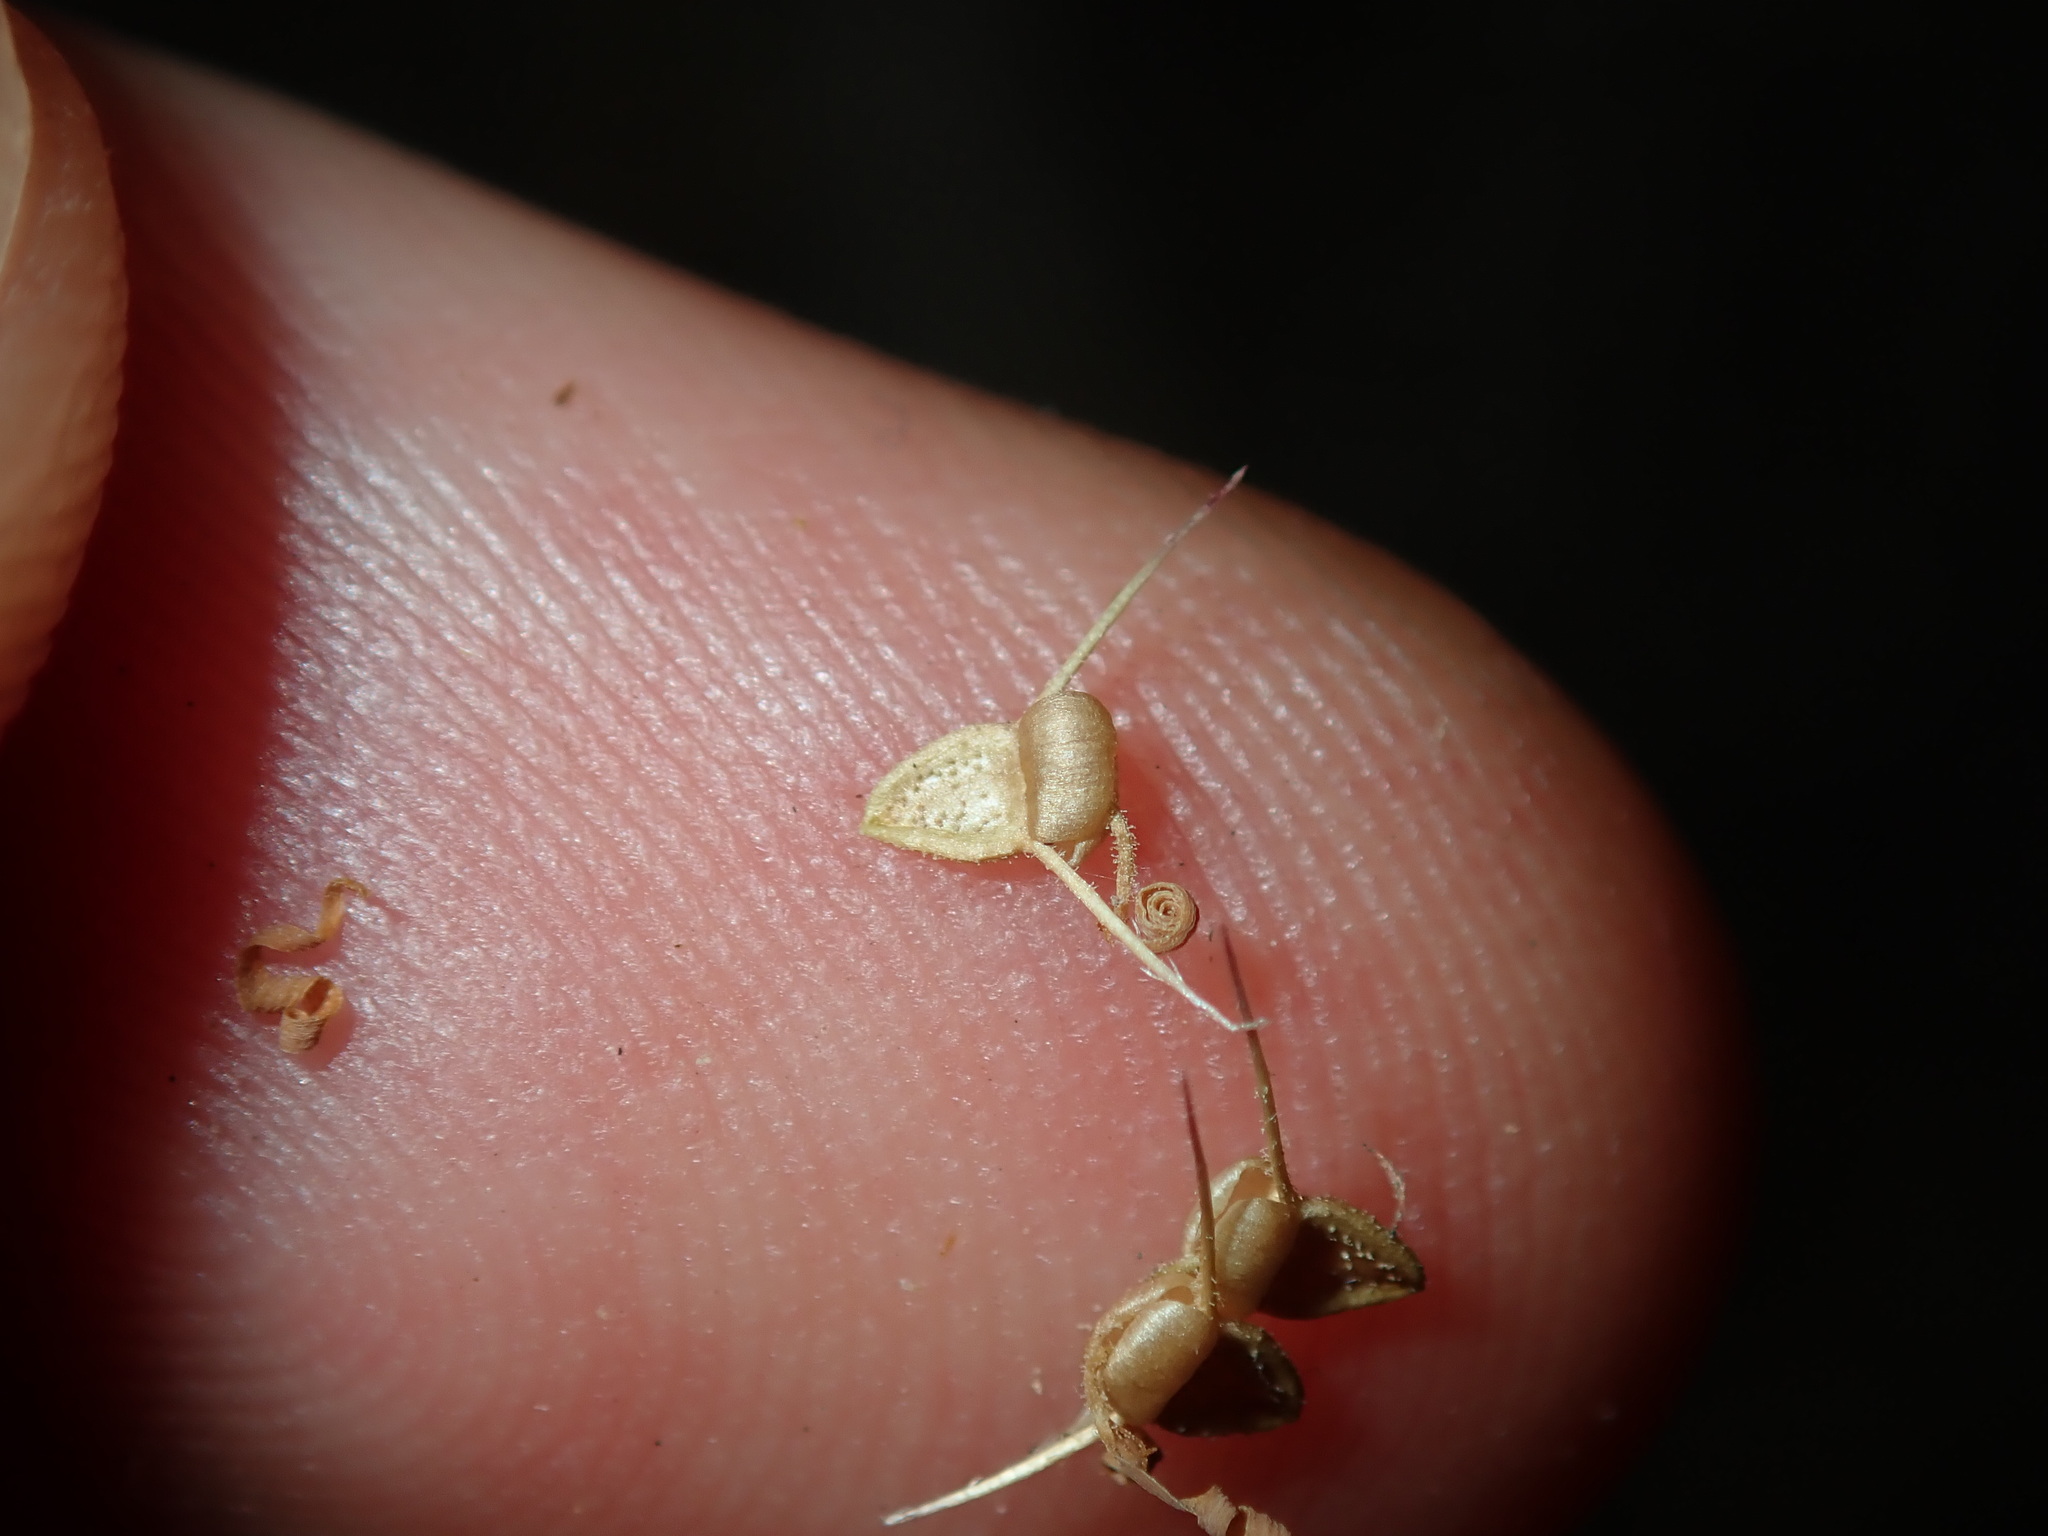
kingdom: Plantae
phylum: Tracheophyta
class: Magnoliopsida
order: Asterales
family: Asteraceae
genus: Calotis
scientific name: Calotis cuneifolia
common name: Bur-daisy
